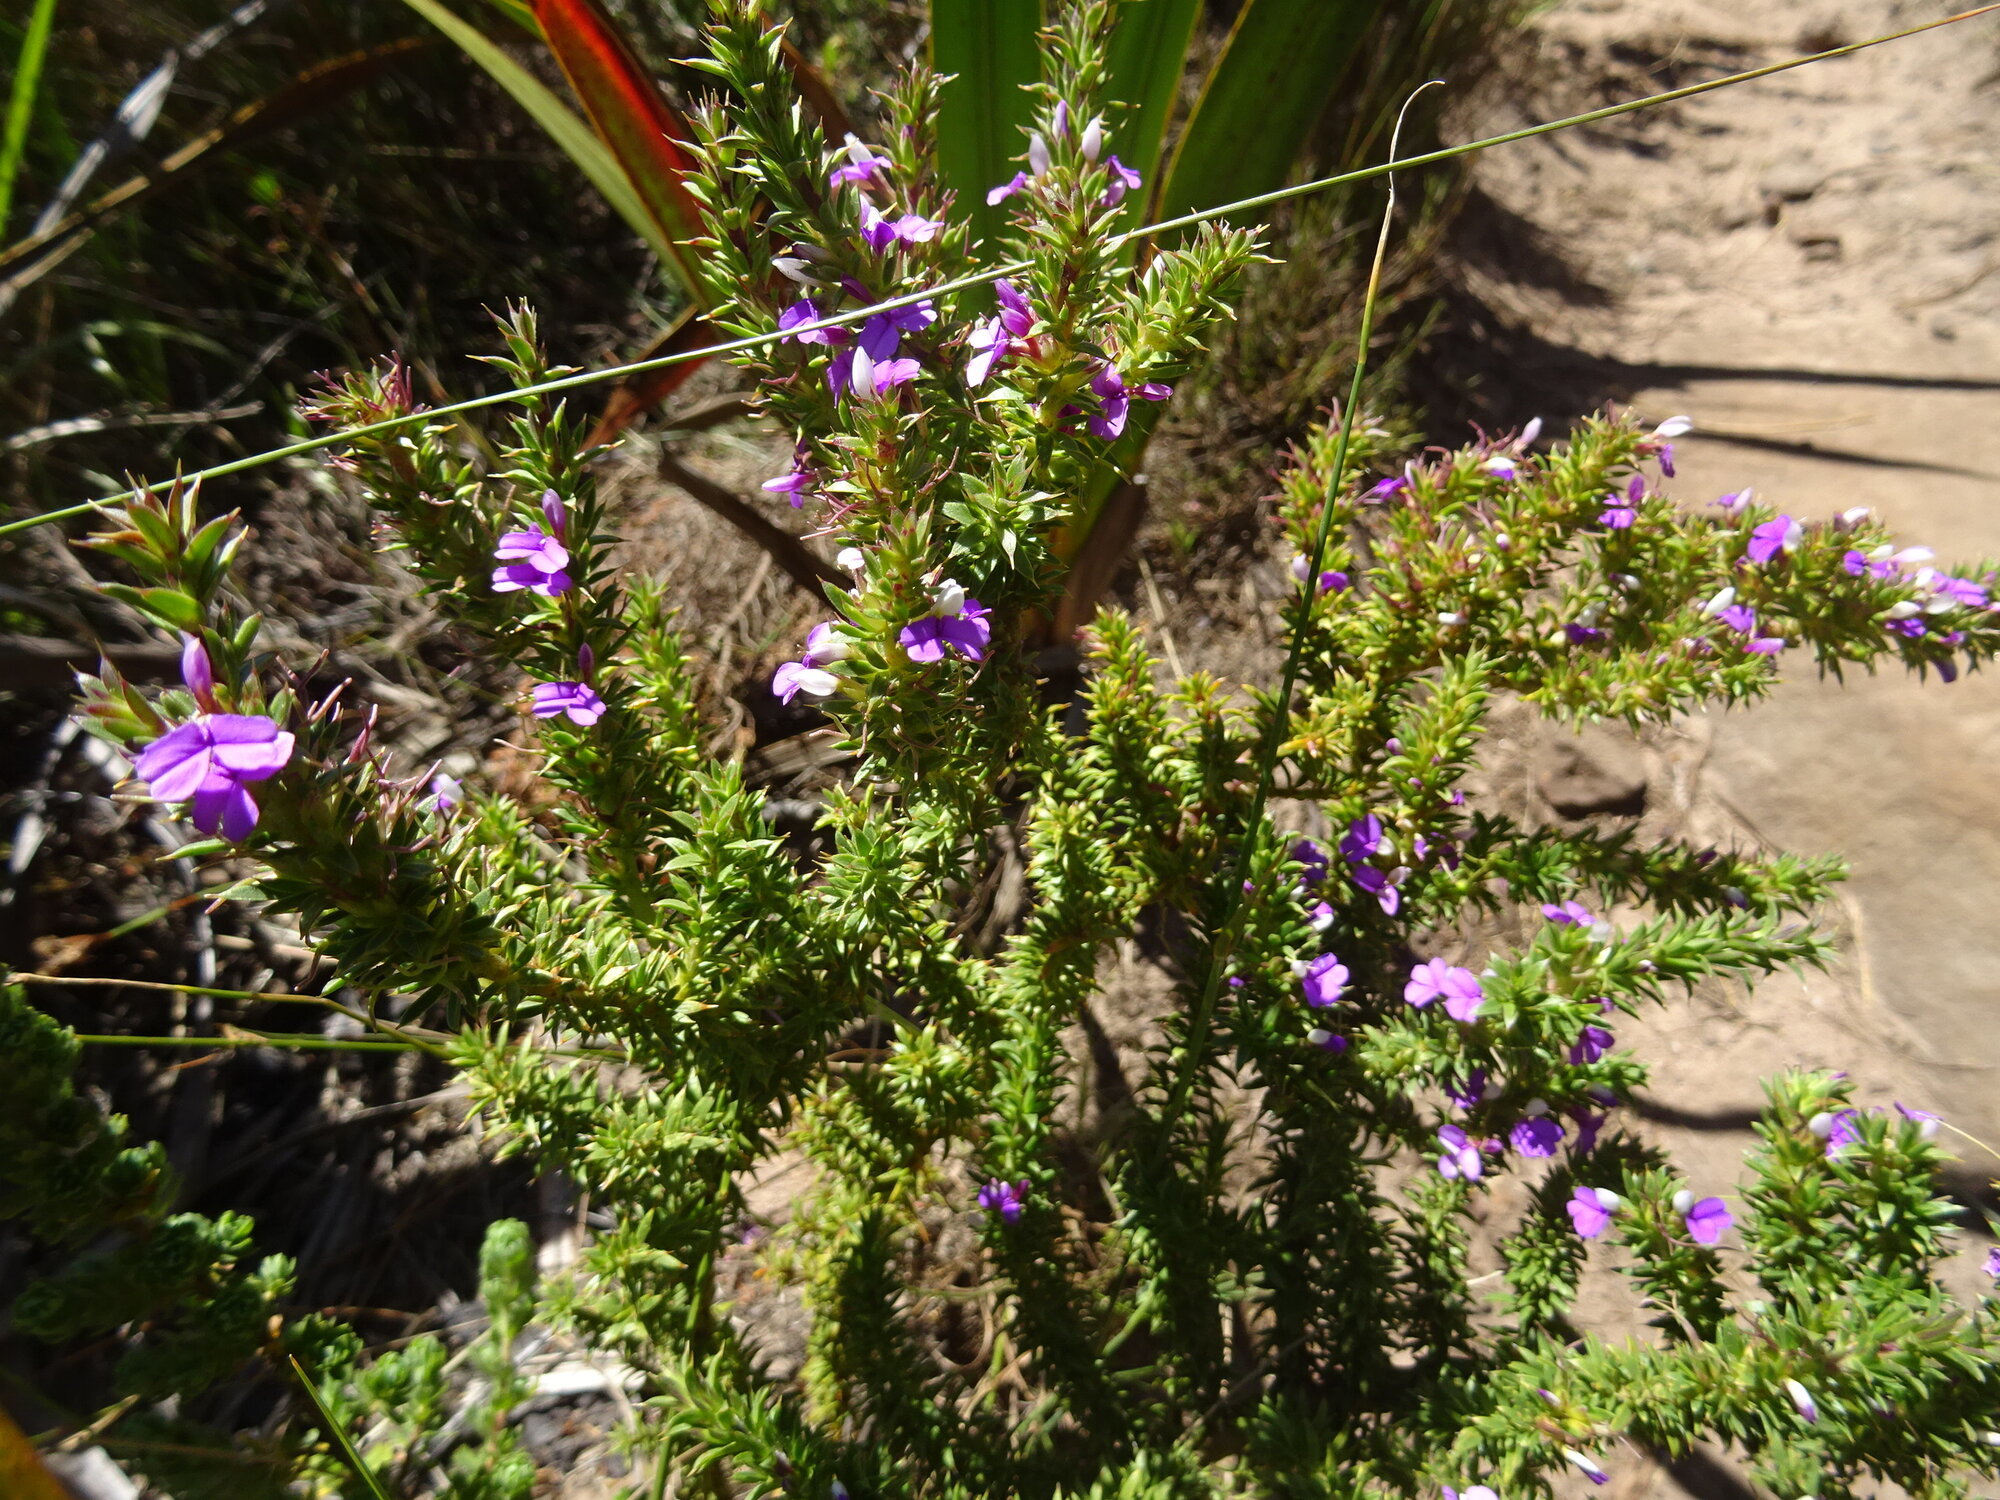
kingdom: Plantae
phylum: Tracheophyta
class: Magnoliopsida
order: Fabales
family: Polygalaceae
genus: Muraltia
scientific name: Muraltia heisteria
